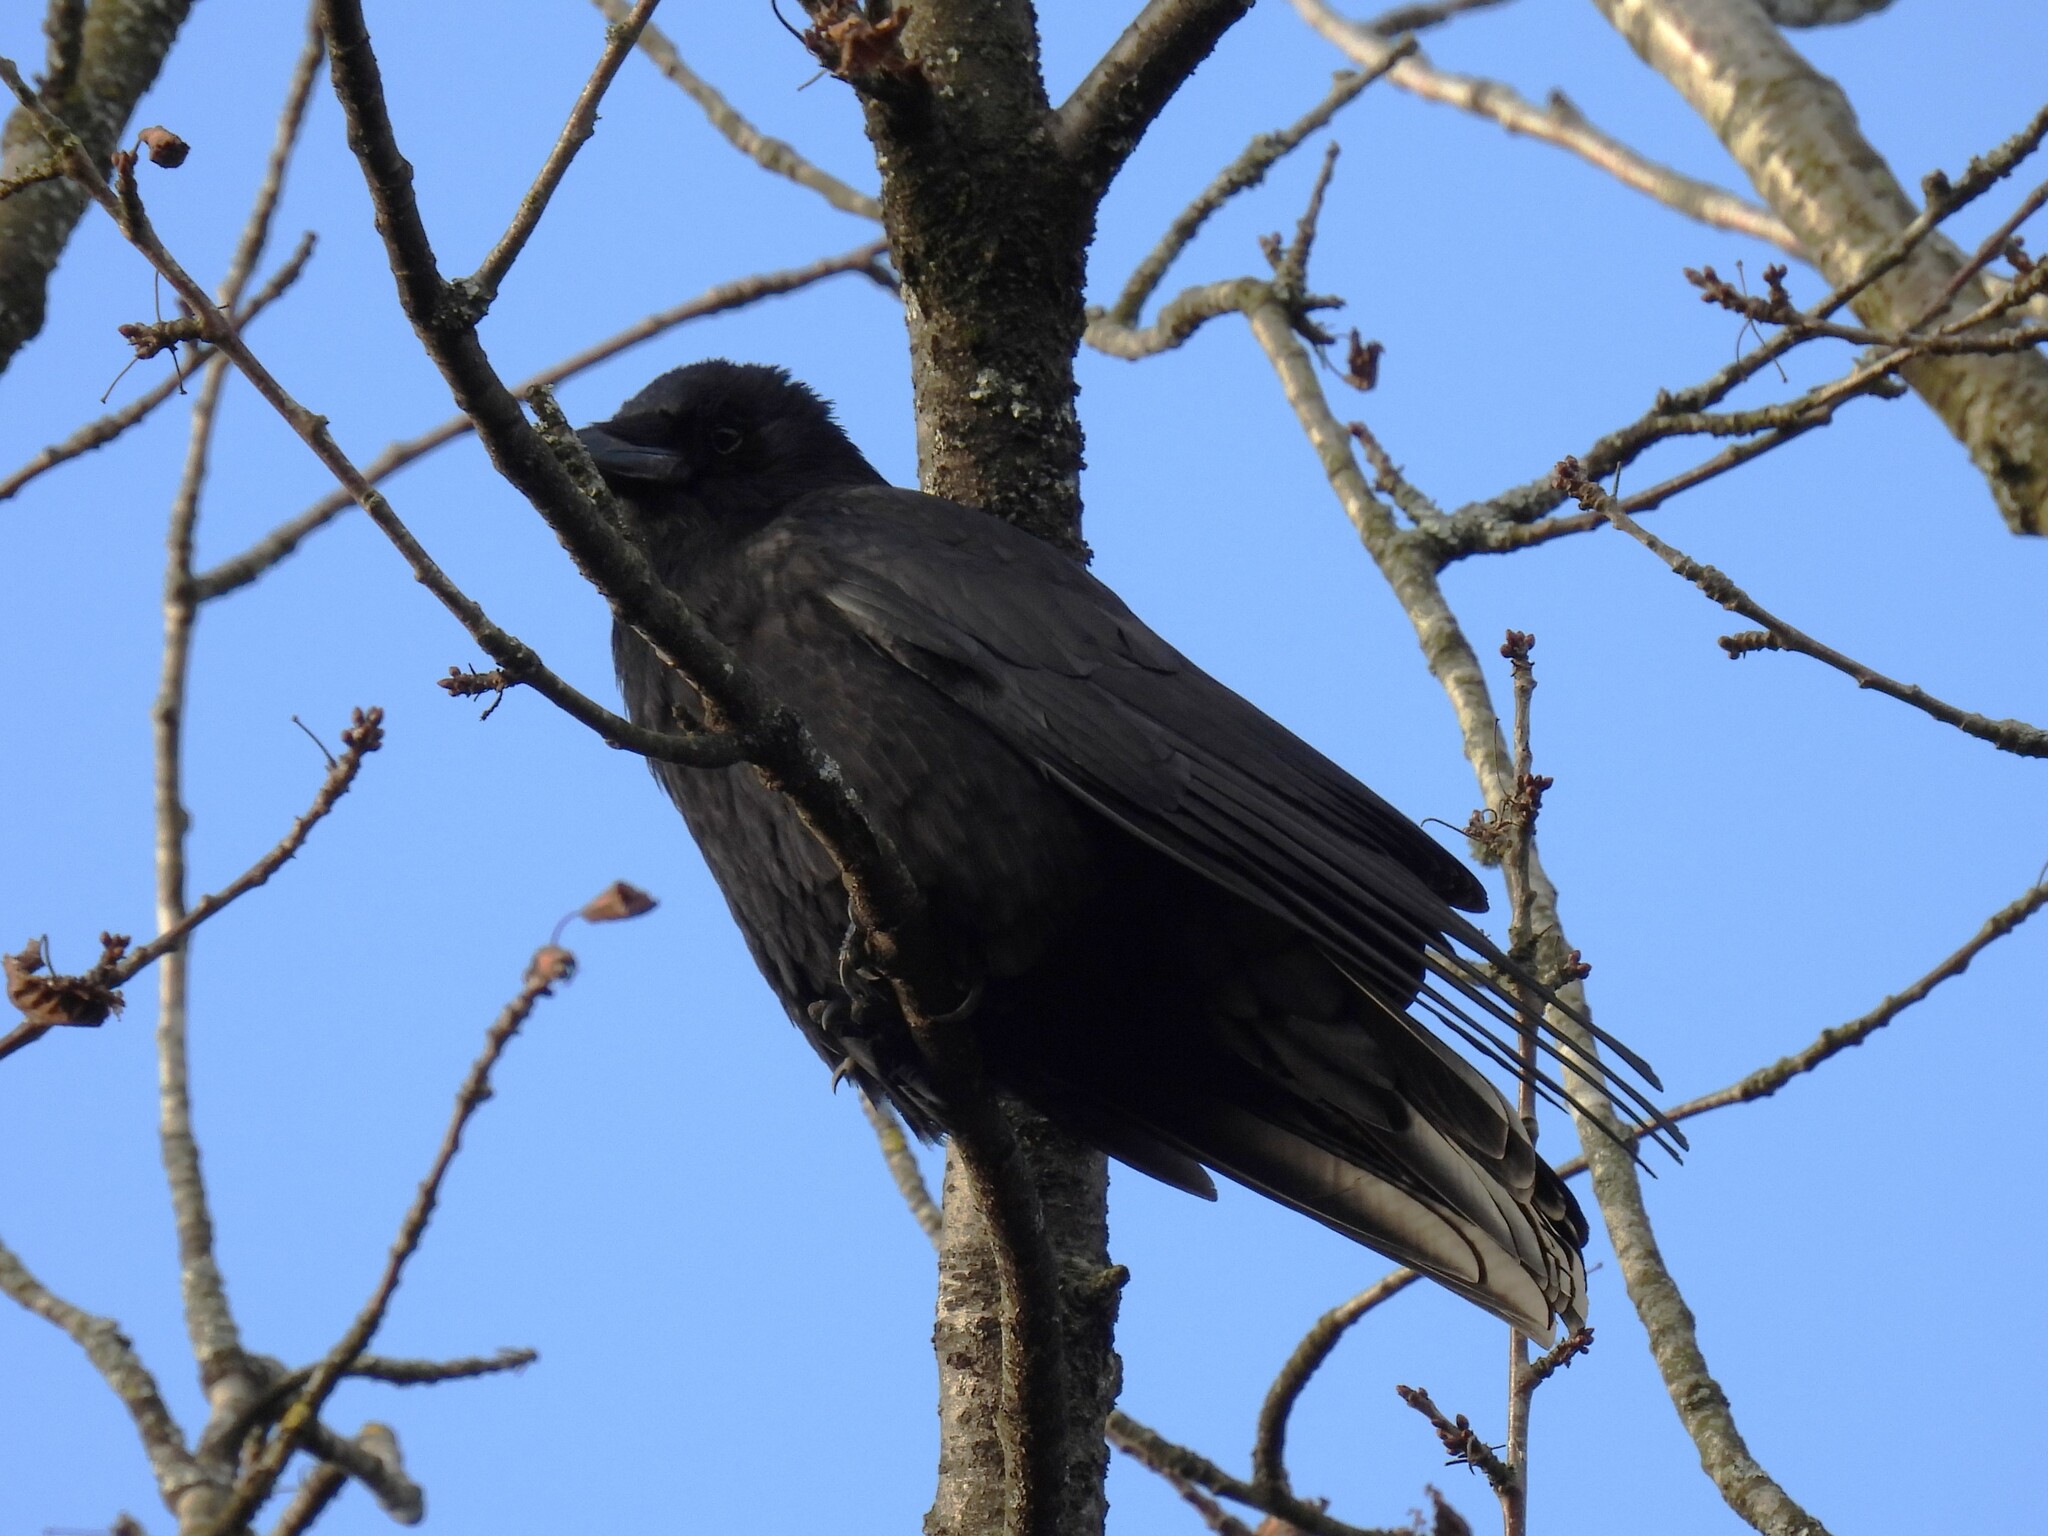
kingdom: Animalia
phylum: Chordata
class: Aves
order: Passeriformes
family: Corvidae
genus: Corvus
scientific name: Corvus corone
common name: Carrion crow
